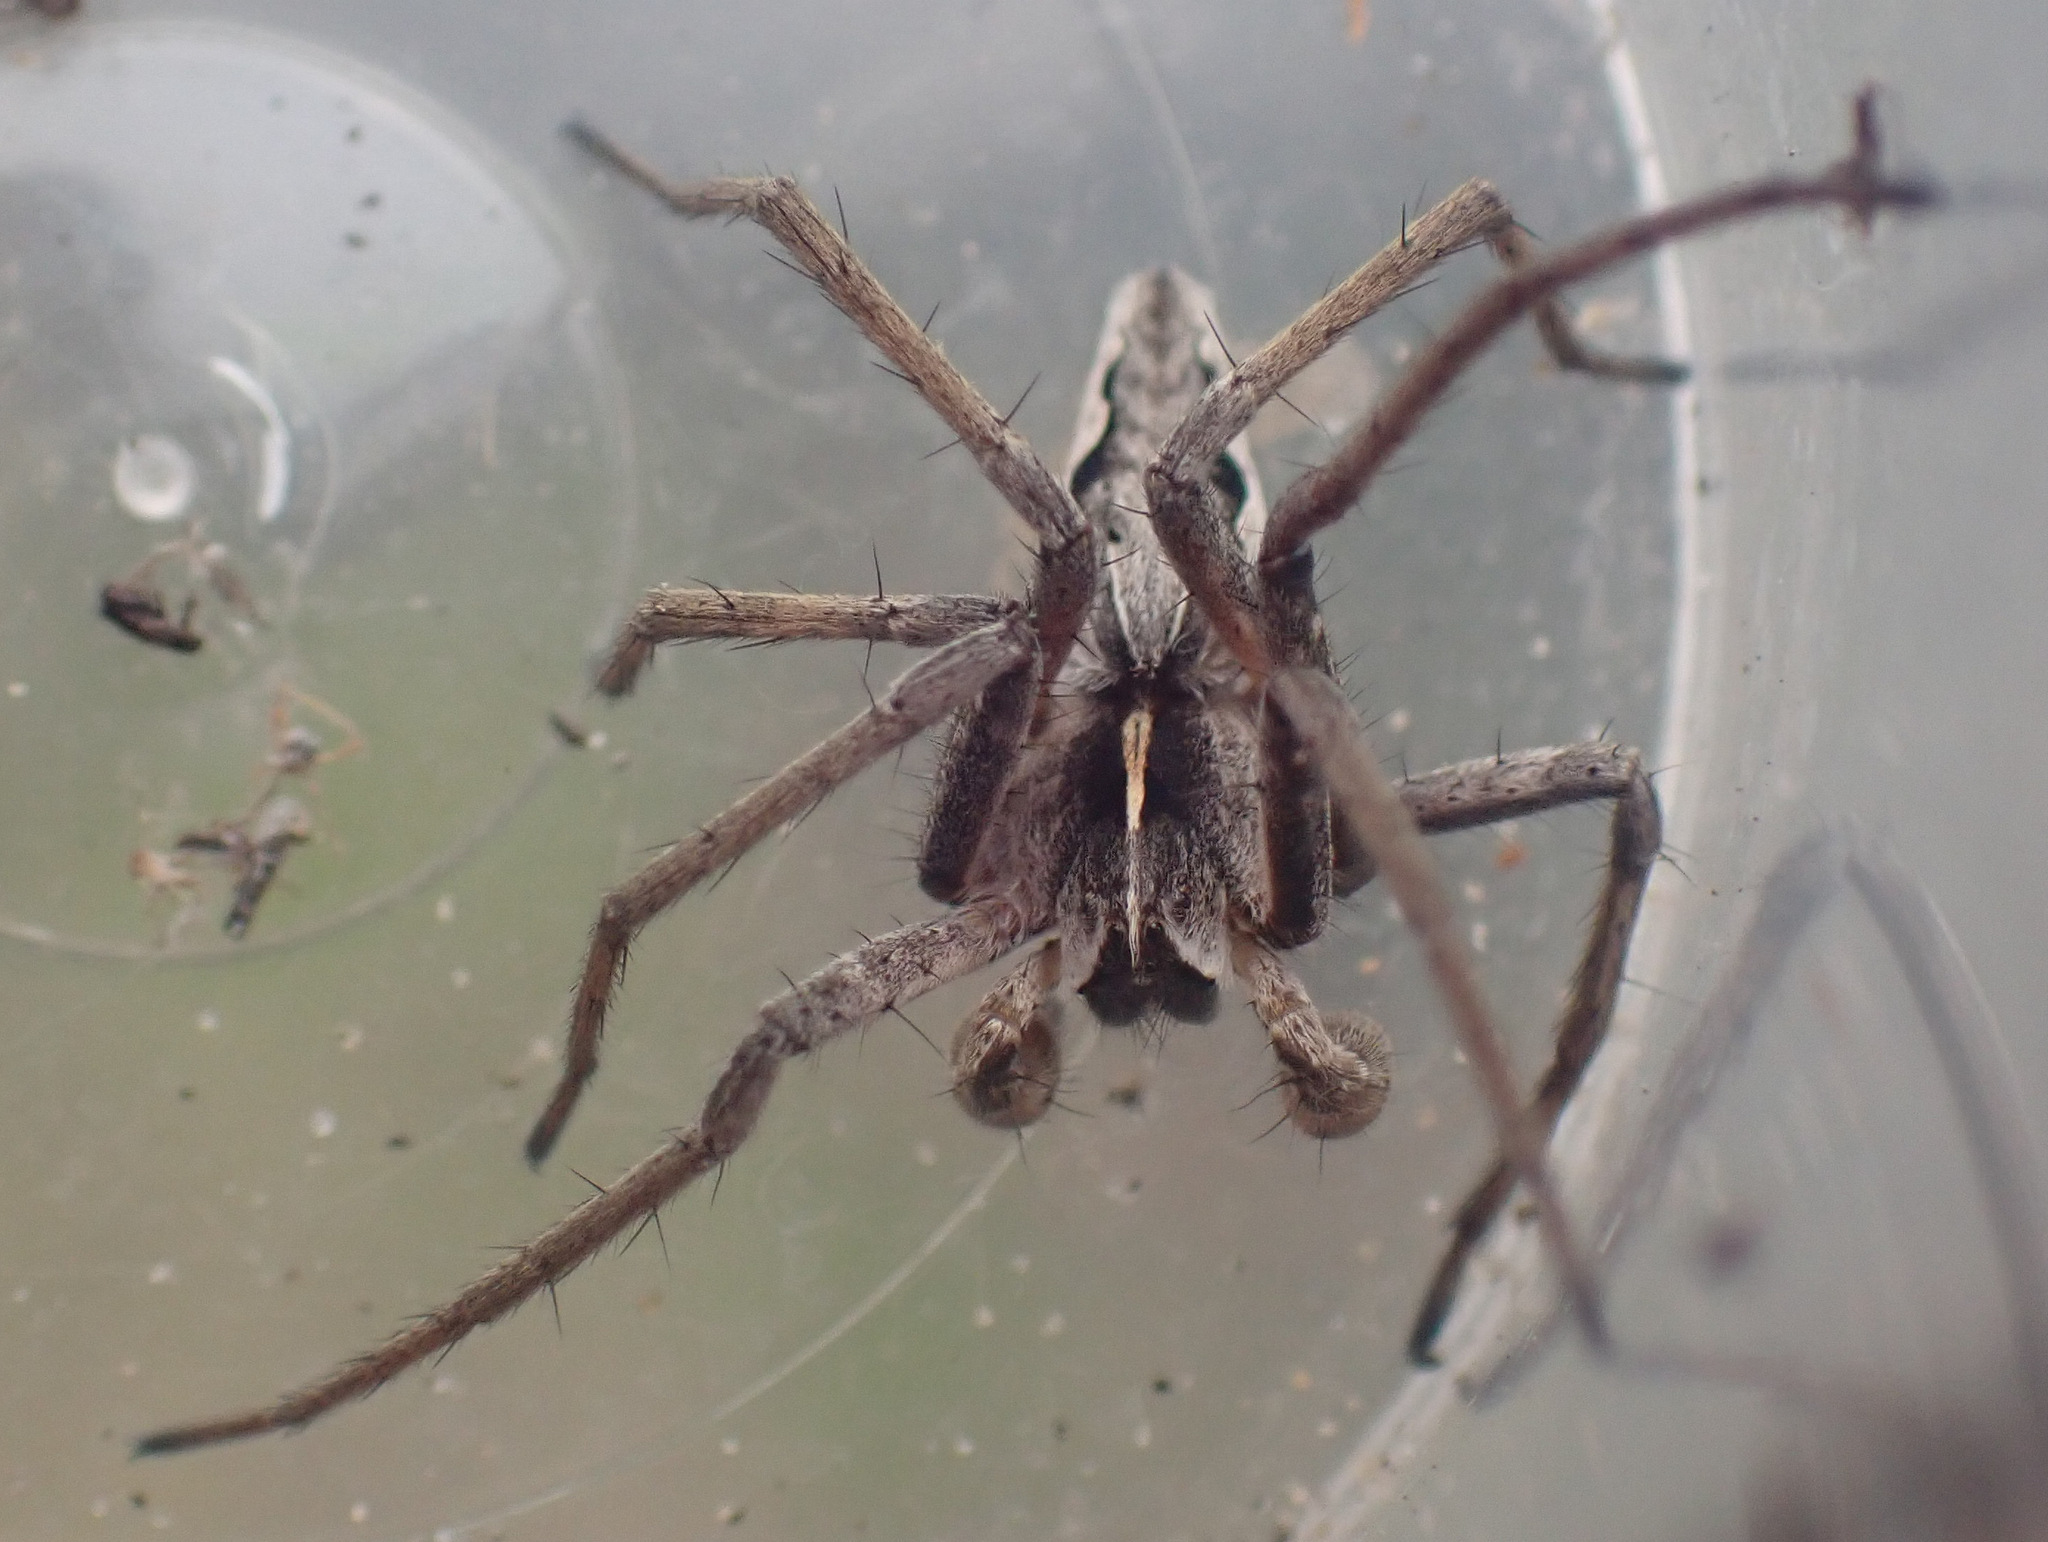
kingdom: Animalia
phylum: Arthropoda
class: Arachnida
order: Araneae
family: Pisauridae
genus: Pisaura
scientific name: Pisaura mirabilis
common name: Tent spider
